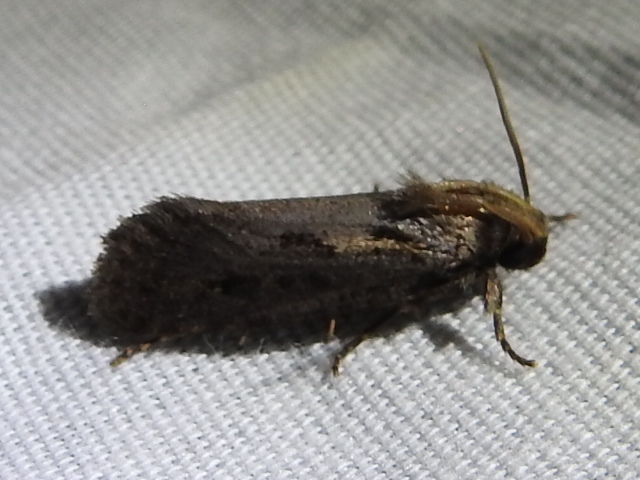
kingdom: Animalia
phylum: Arthropoda
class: Insecta
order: Lepidoptera
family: Tineidae
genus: Acrolophus
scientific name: Acrolophus popeanella
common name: Clemens' grass tubeworm moth
